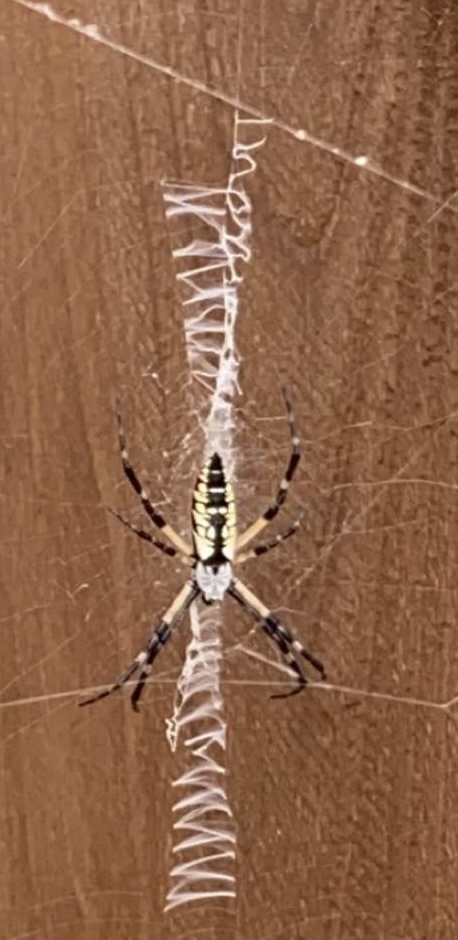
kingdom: Animalia
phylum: Arthropoda
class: Arachnida
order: Araneae
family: Araneidae
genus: Argiope
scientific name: Argiope aurantia
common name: Orb weavers
